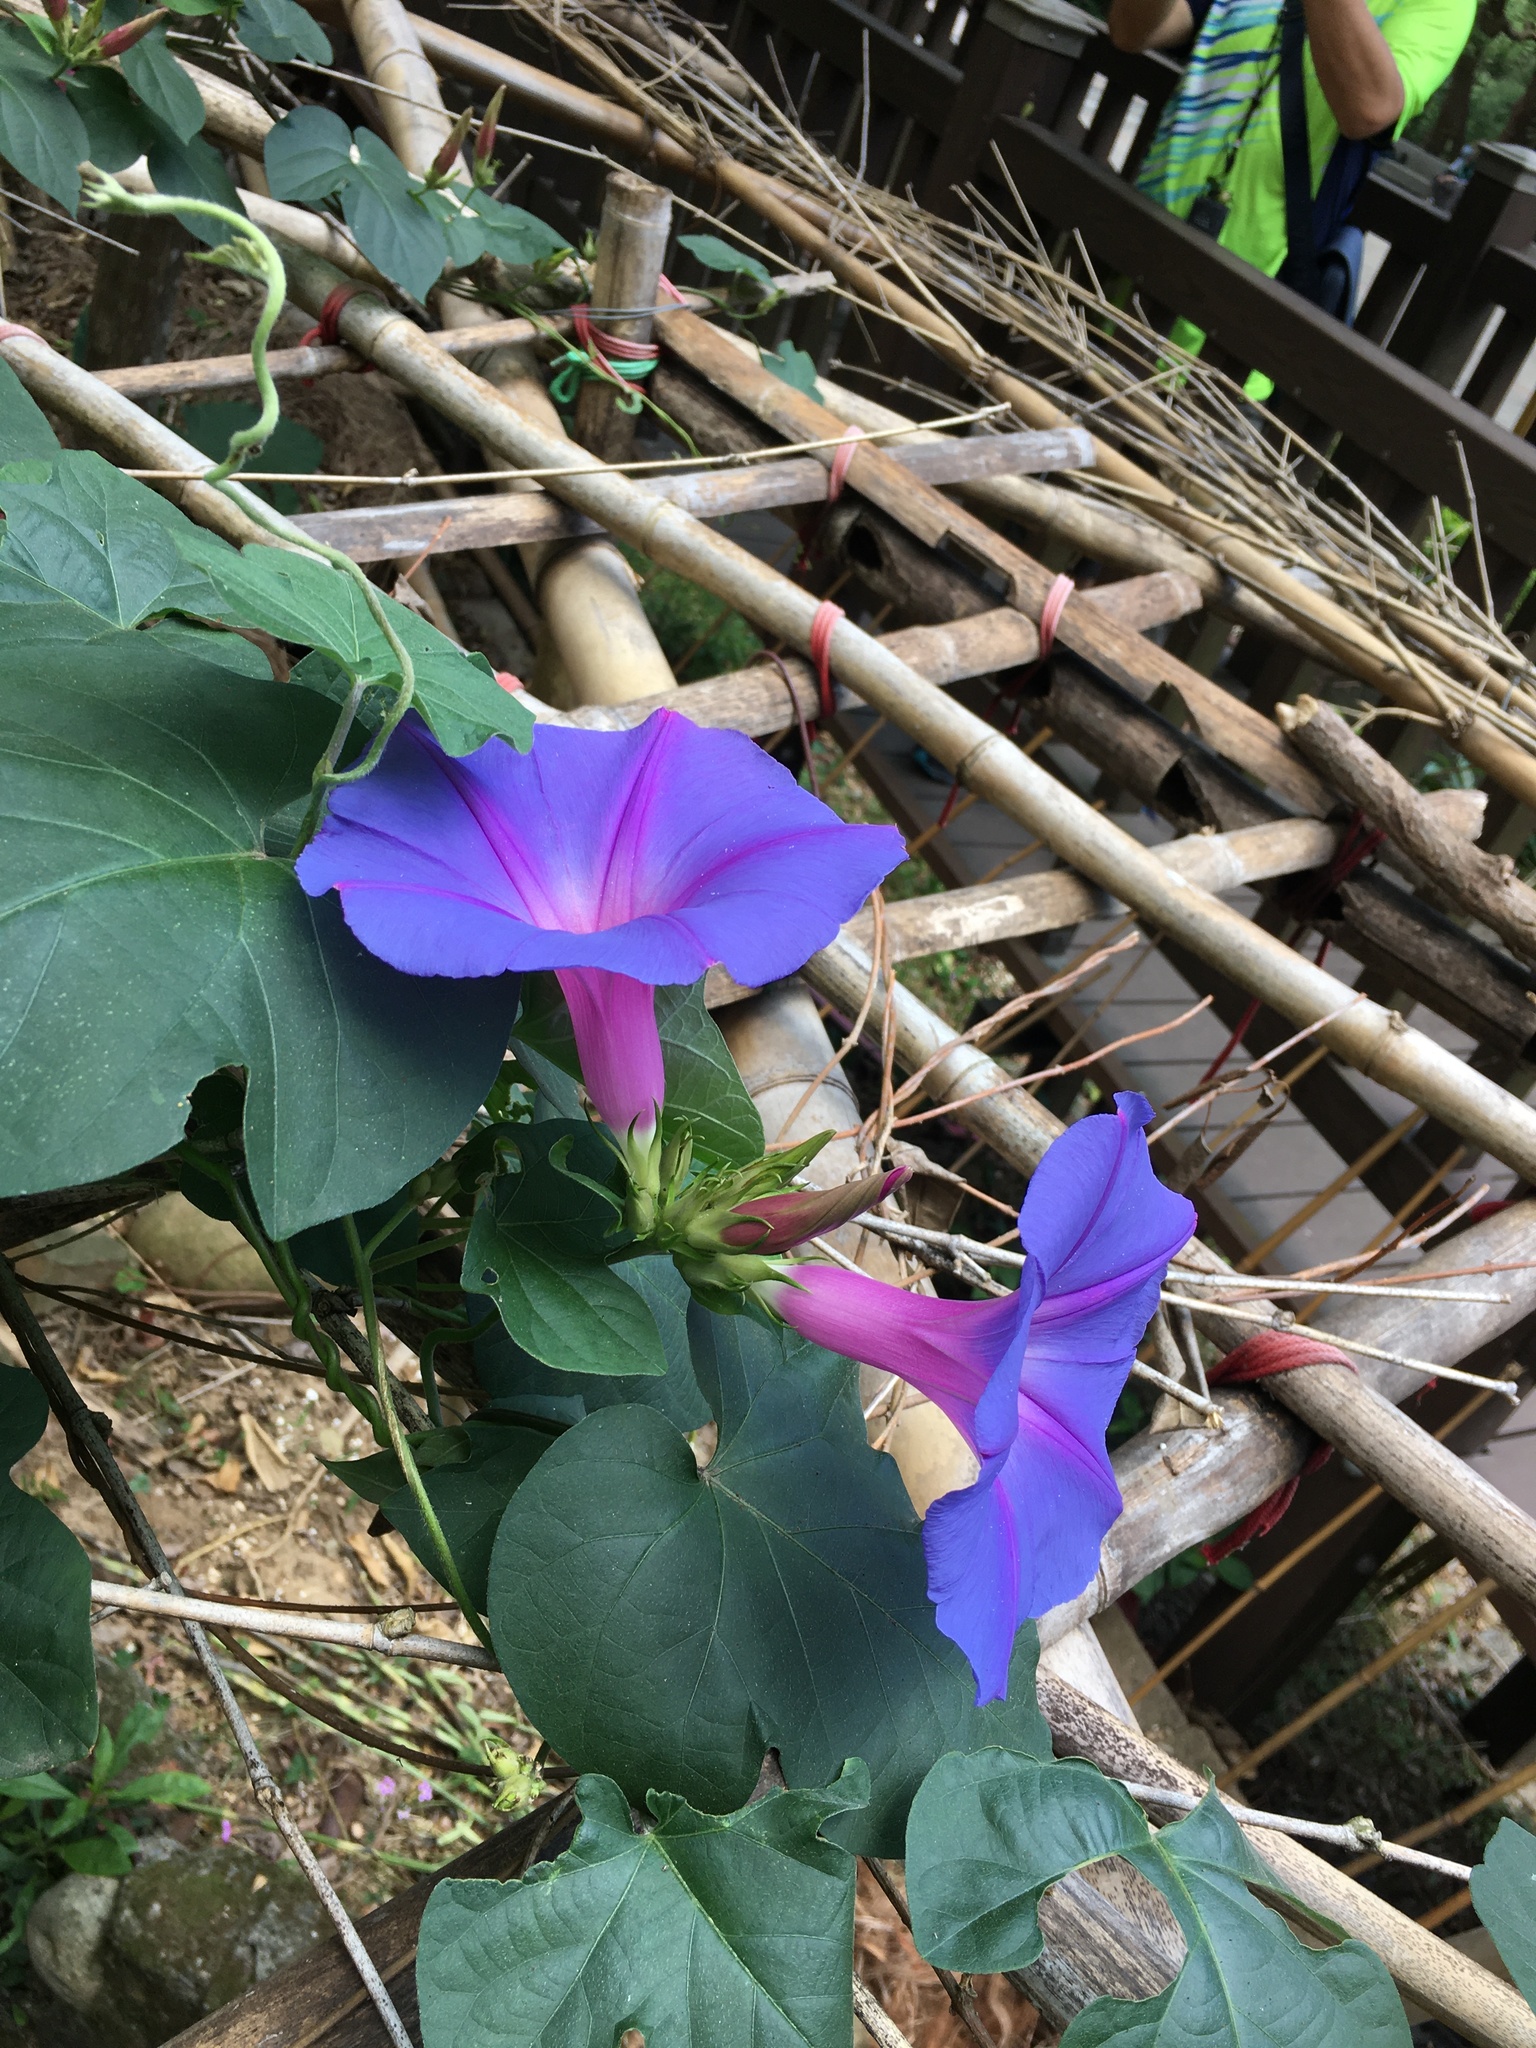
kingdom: Plantae
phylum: Tracheophyta
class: Magnoliopsida
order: Solanales
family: Convolvulaceae
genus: Ipomoea
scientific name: Ipomoea indica
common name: Blue dawnflower
